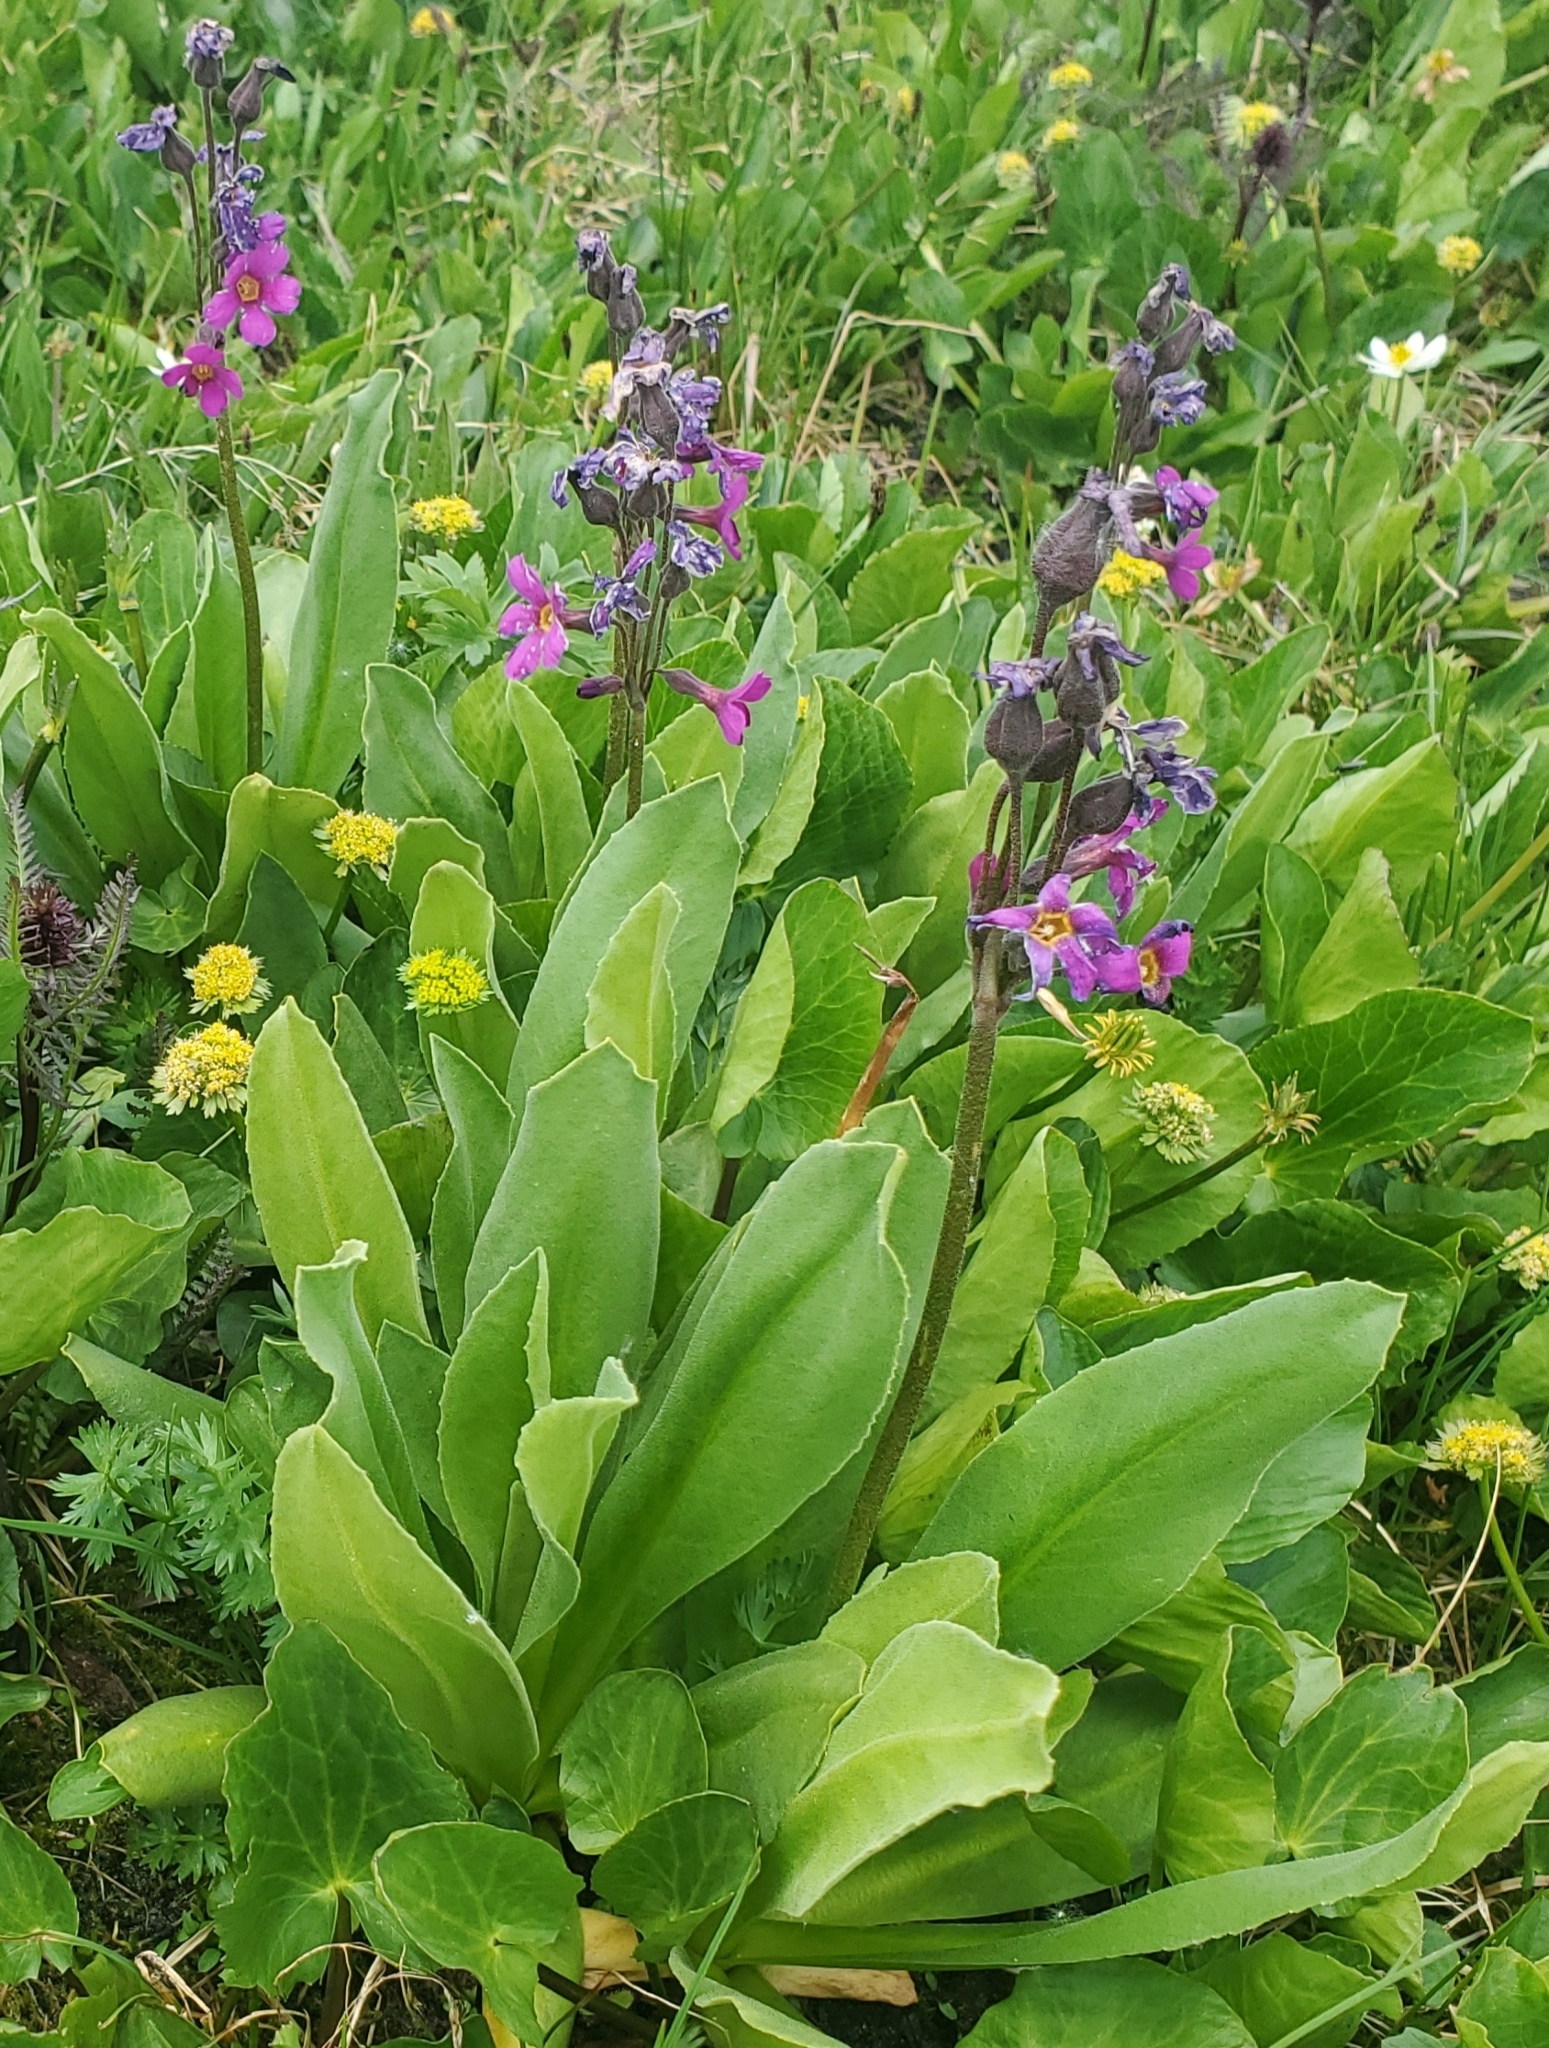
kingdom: Plantae
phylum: Tracheophyta
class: Magnoliopsida
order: Ericales
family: Primulaceae
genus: Primula
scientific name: Primula parryi
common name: Parry's primrose
